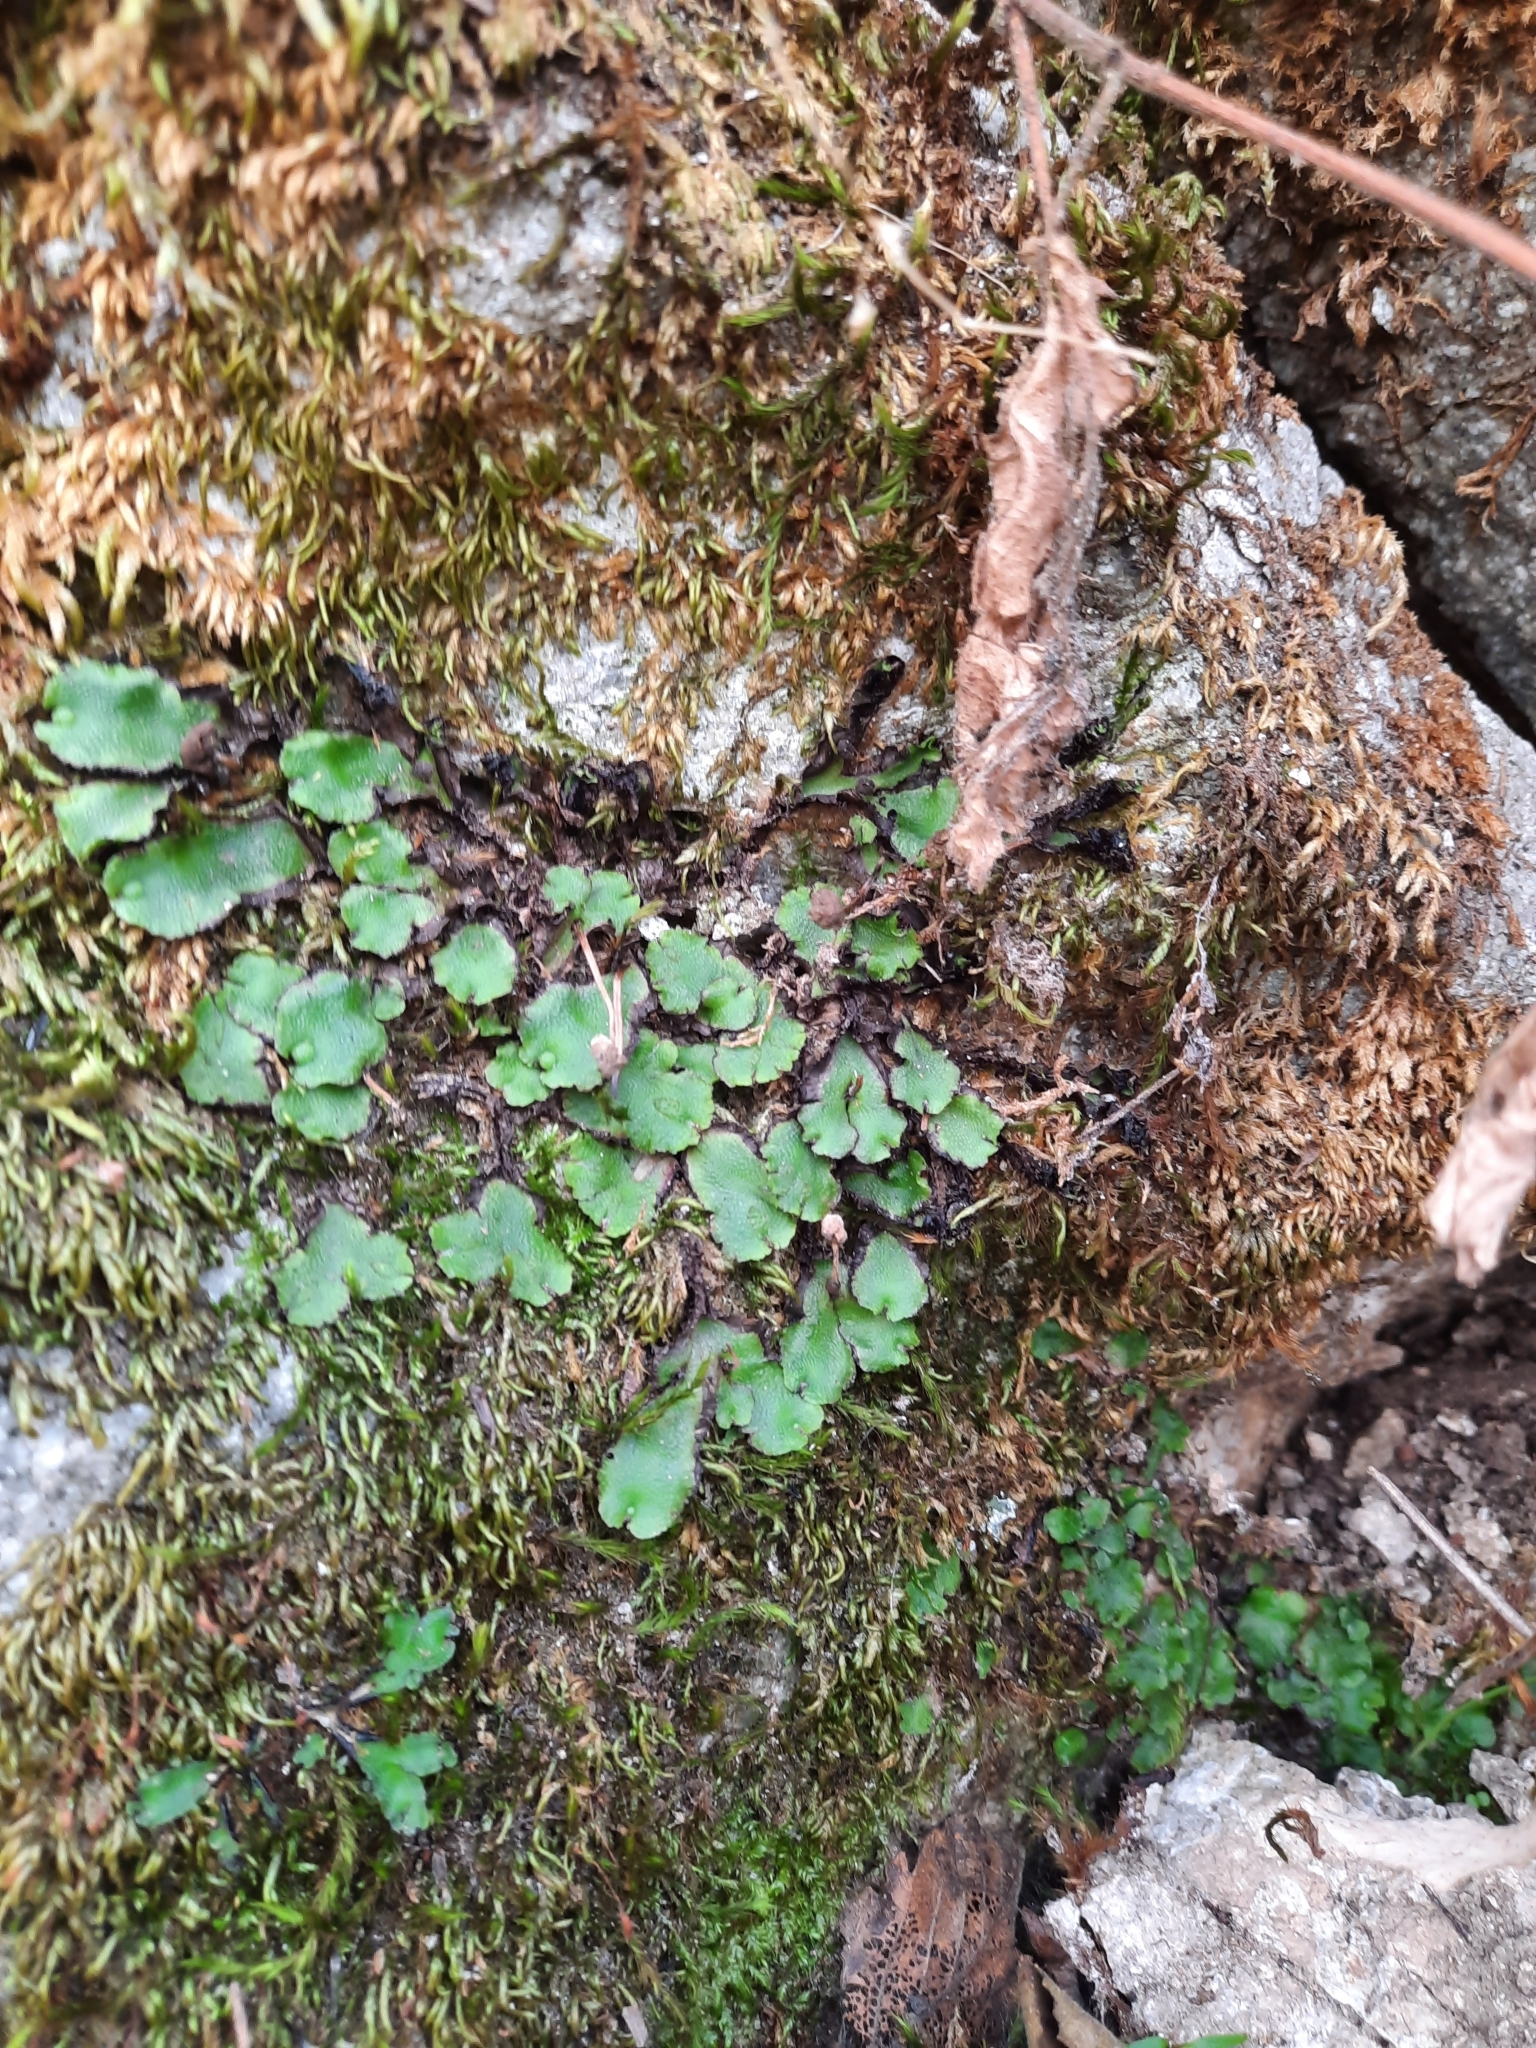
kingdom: Plantae
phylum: Marchantiophyta
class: Marchantiopsida
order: Marchantiales
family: Aytoniaceae
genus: Asterella
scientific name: Asterella californica
